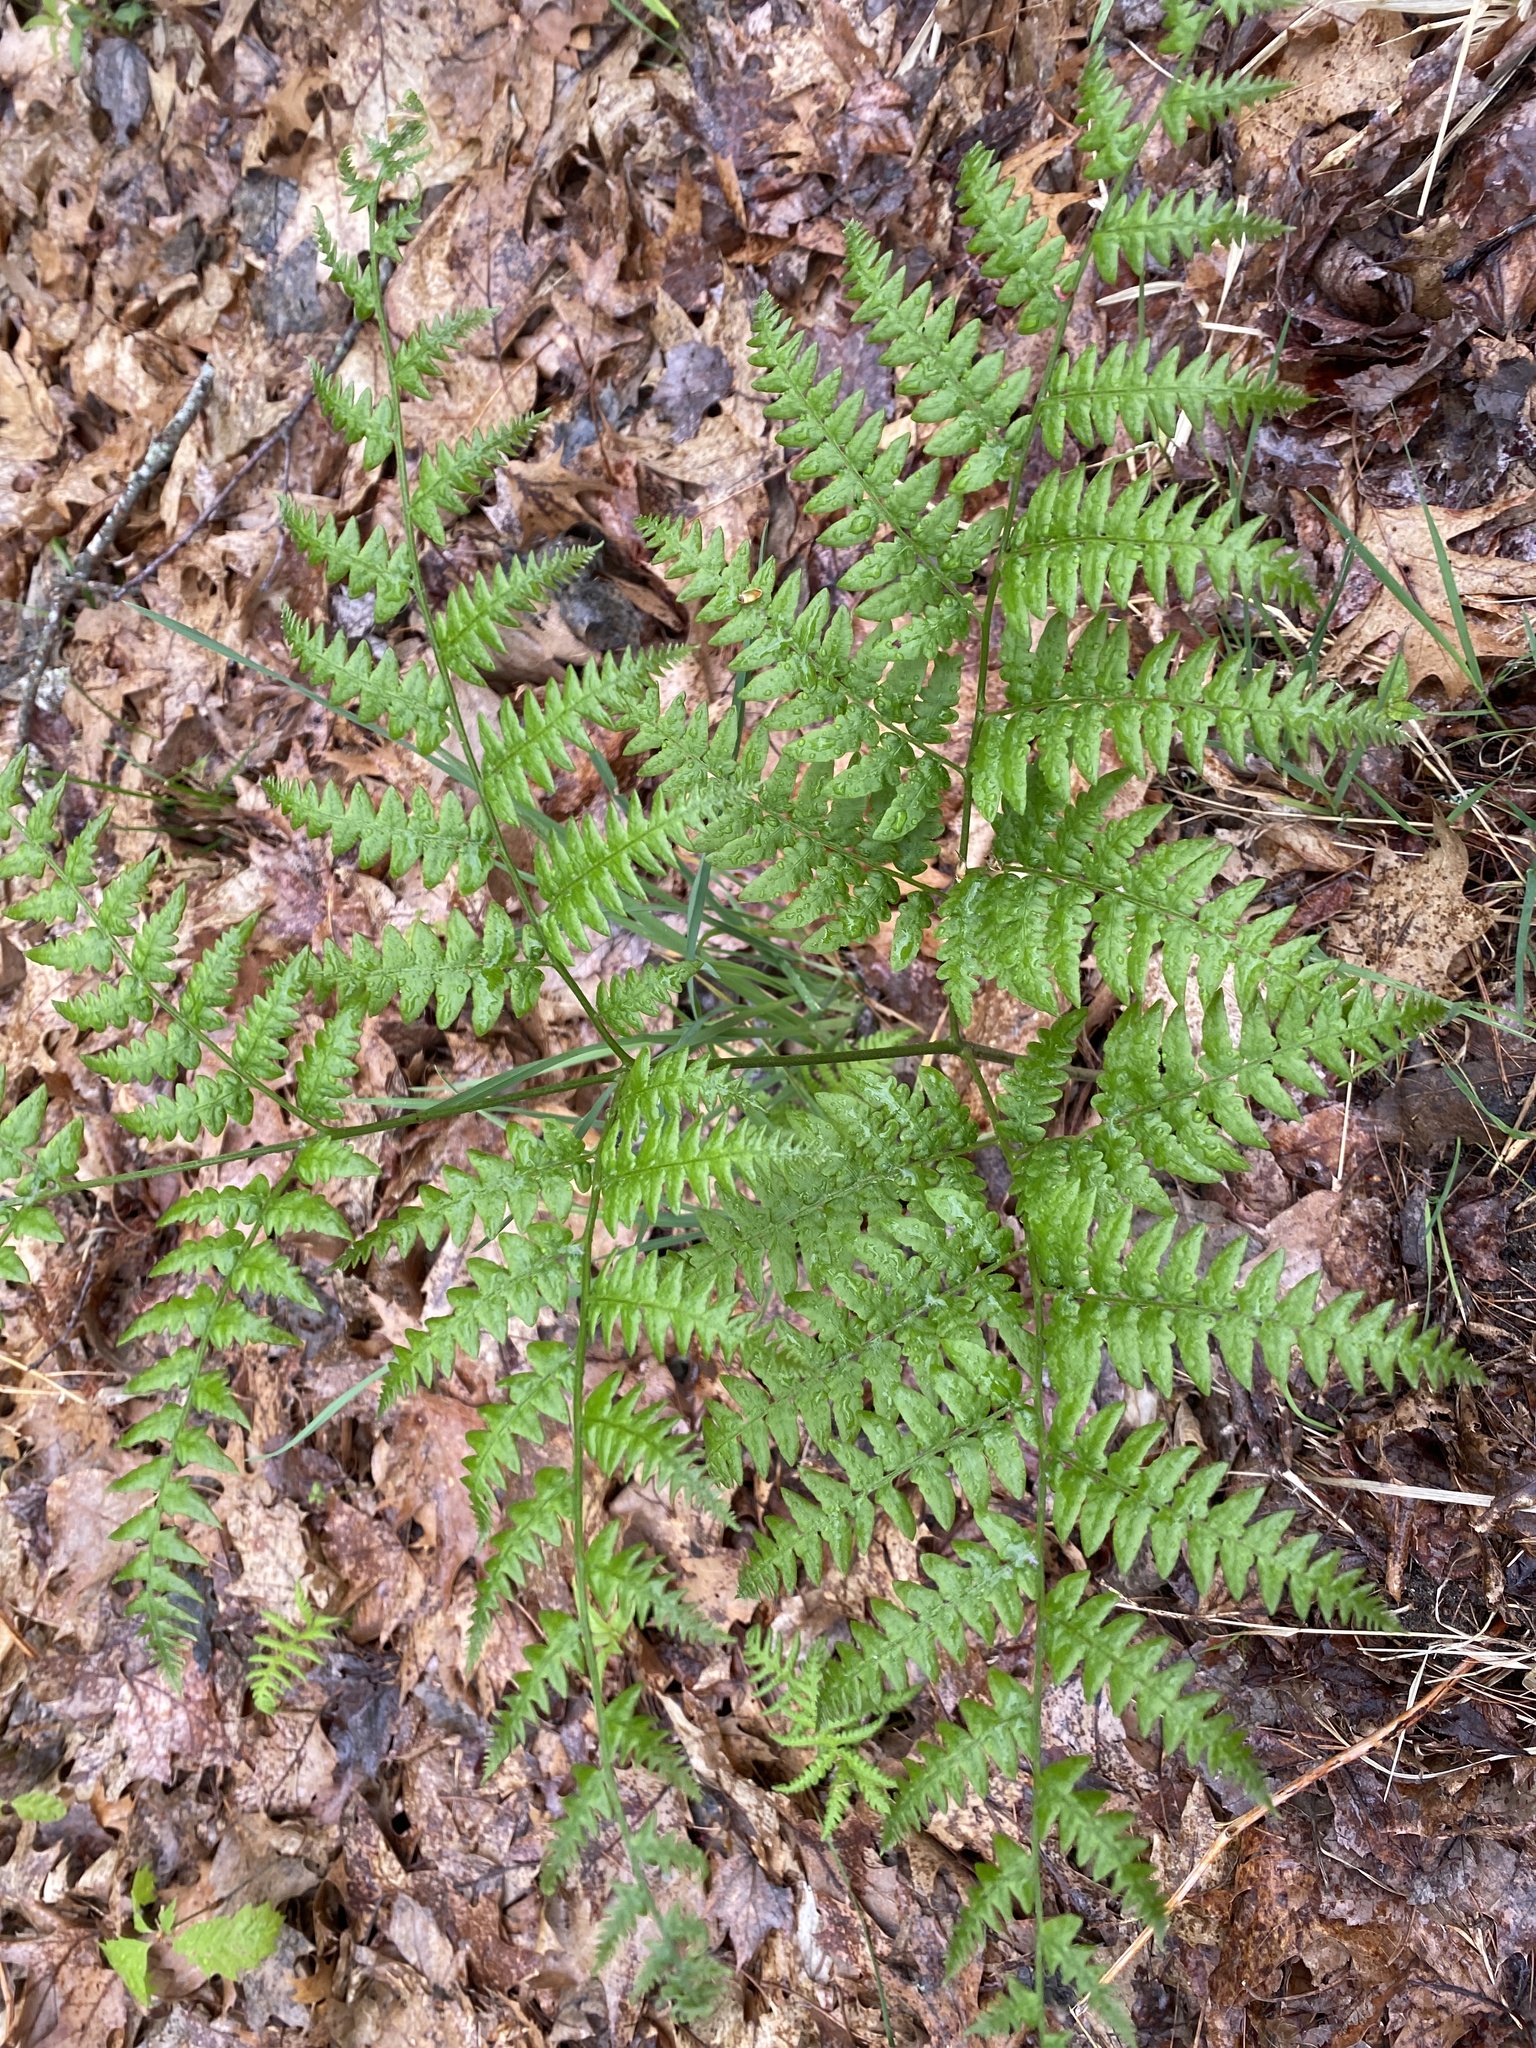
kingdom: Plantae
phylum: Tracheophyta
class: Polypodiopsida
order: Polypodiales
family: Dennstaedtiaceae
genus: Pteridium
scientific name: Pteridium aquilinum
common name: Bracken
